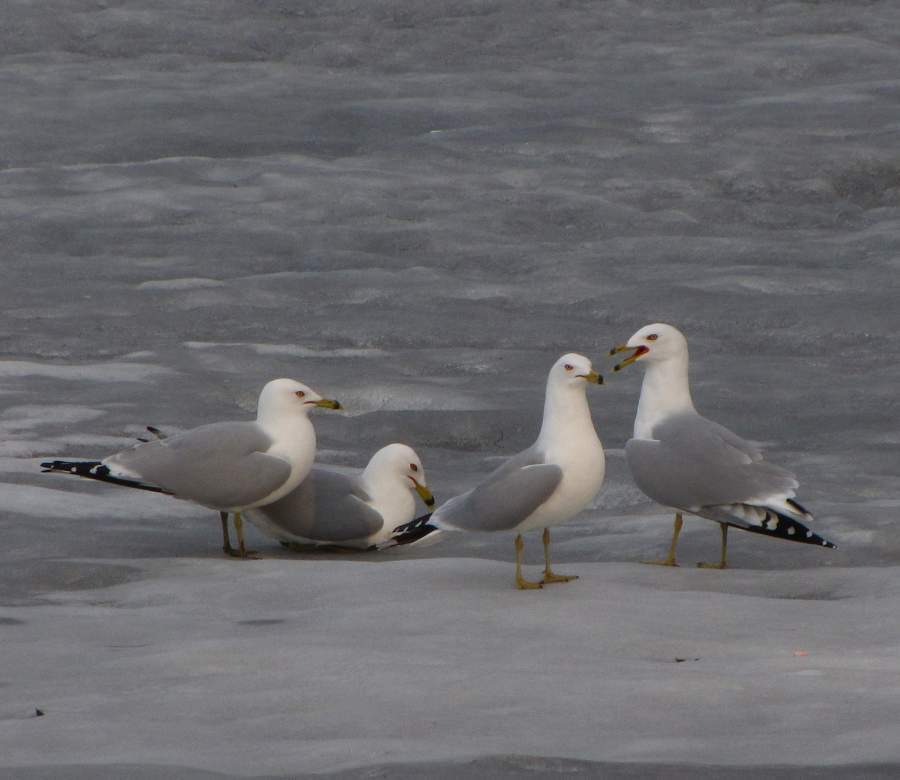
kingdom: Animalia
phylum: Chordata
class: Aves
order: Charadriiformes
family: Laridae
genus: Larus
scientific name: Larus delawarensis
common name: Ring-billed gull
